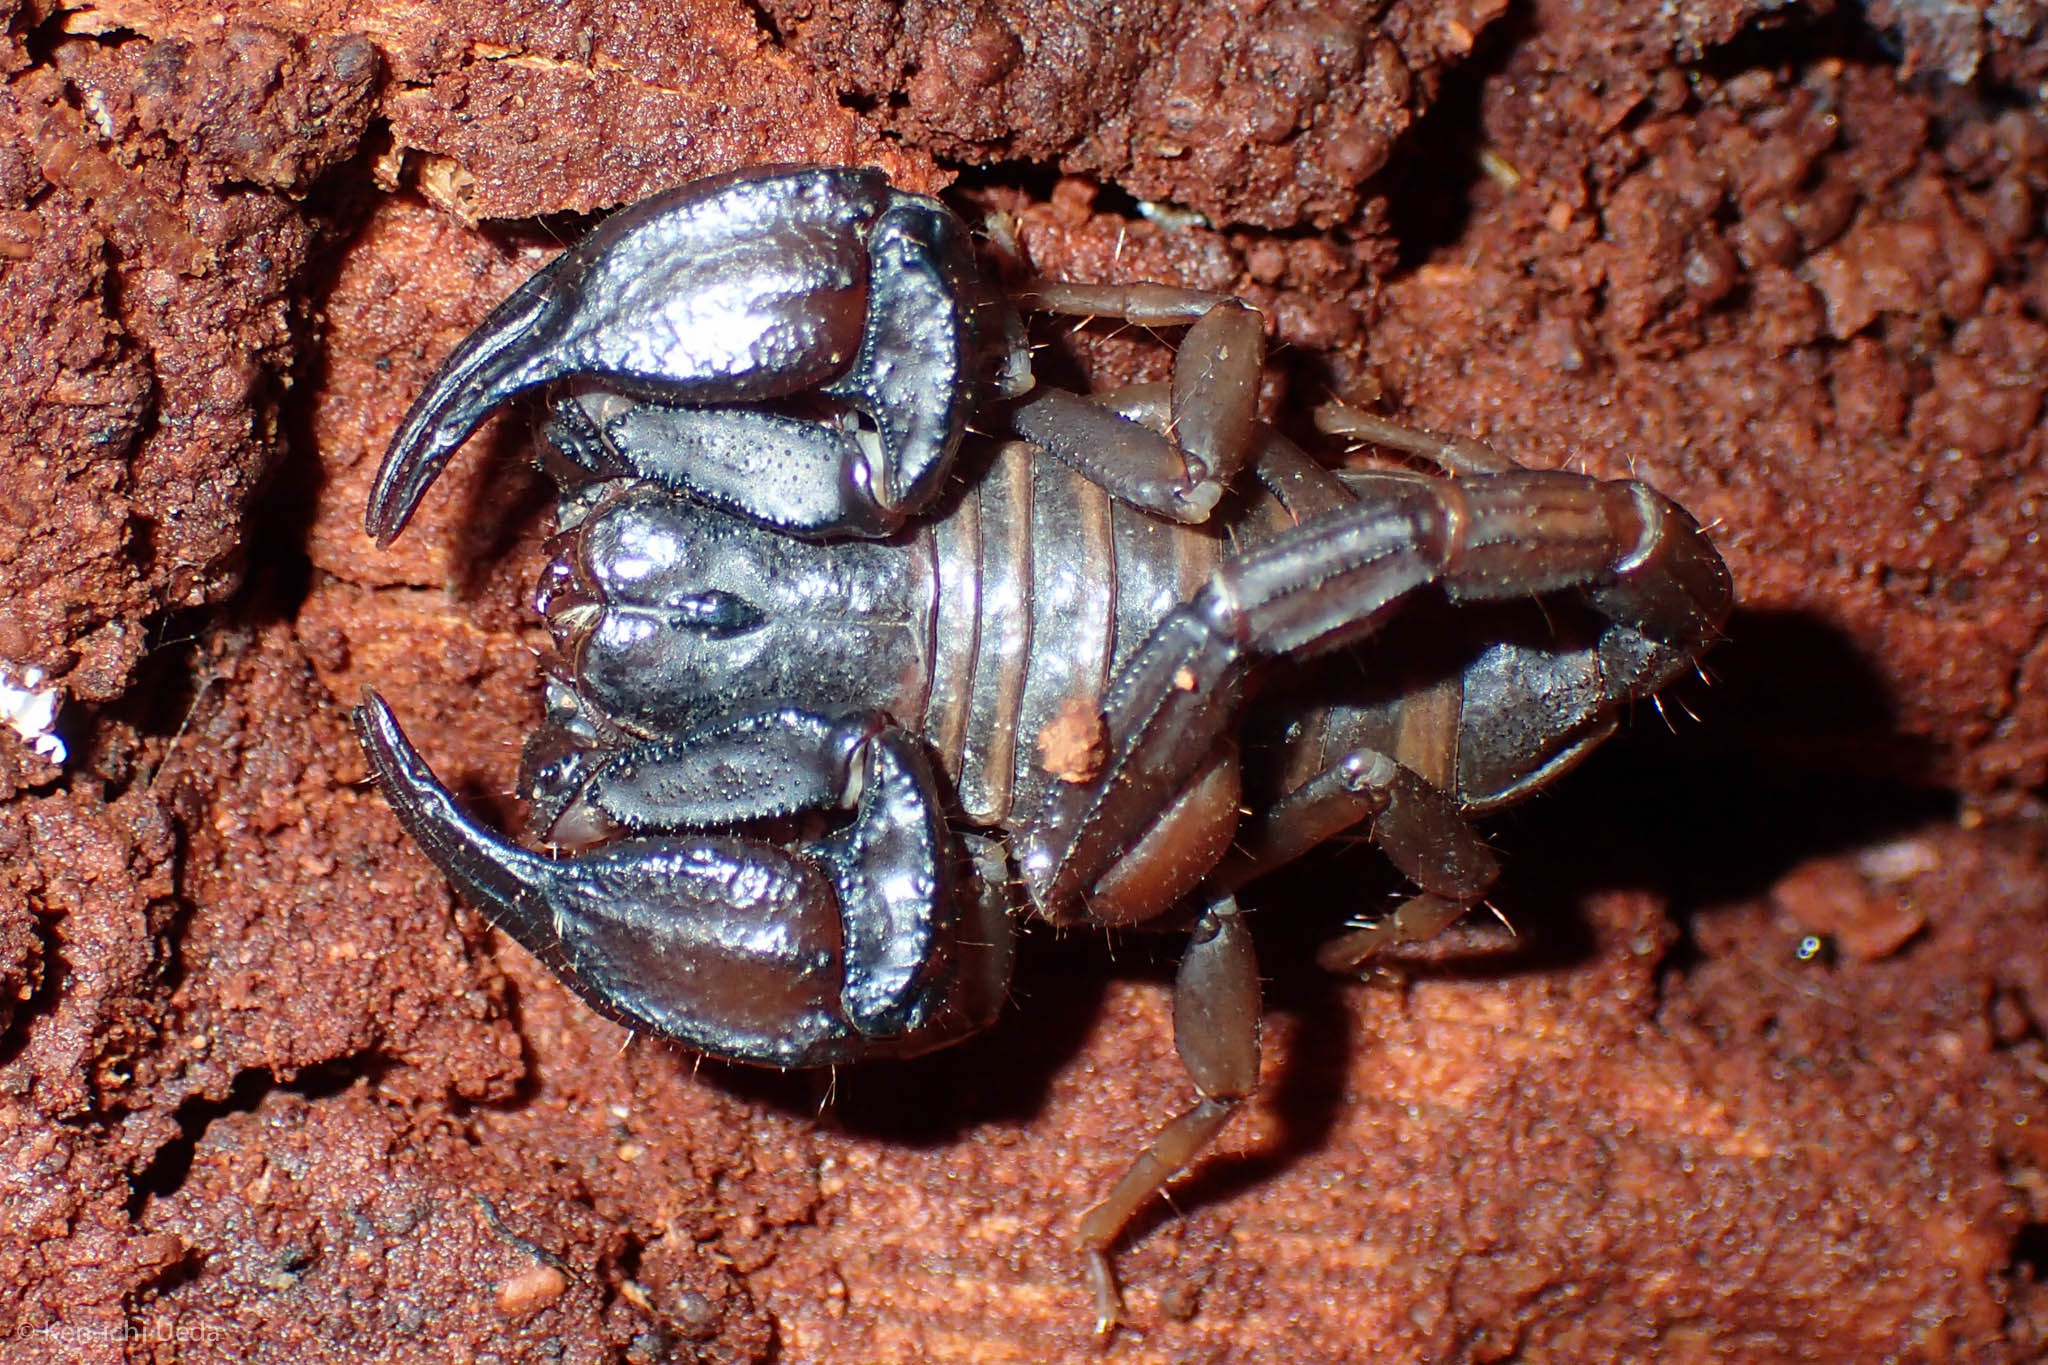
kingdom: Animalia
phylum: Arthropoda
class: Arachnida
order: Scorpiones
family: Chactidae
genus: Uroctonus
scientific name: Uroctonus mordax
